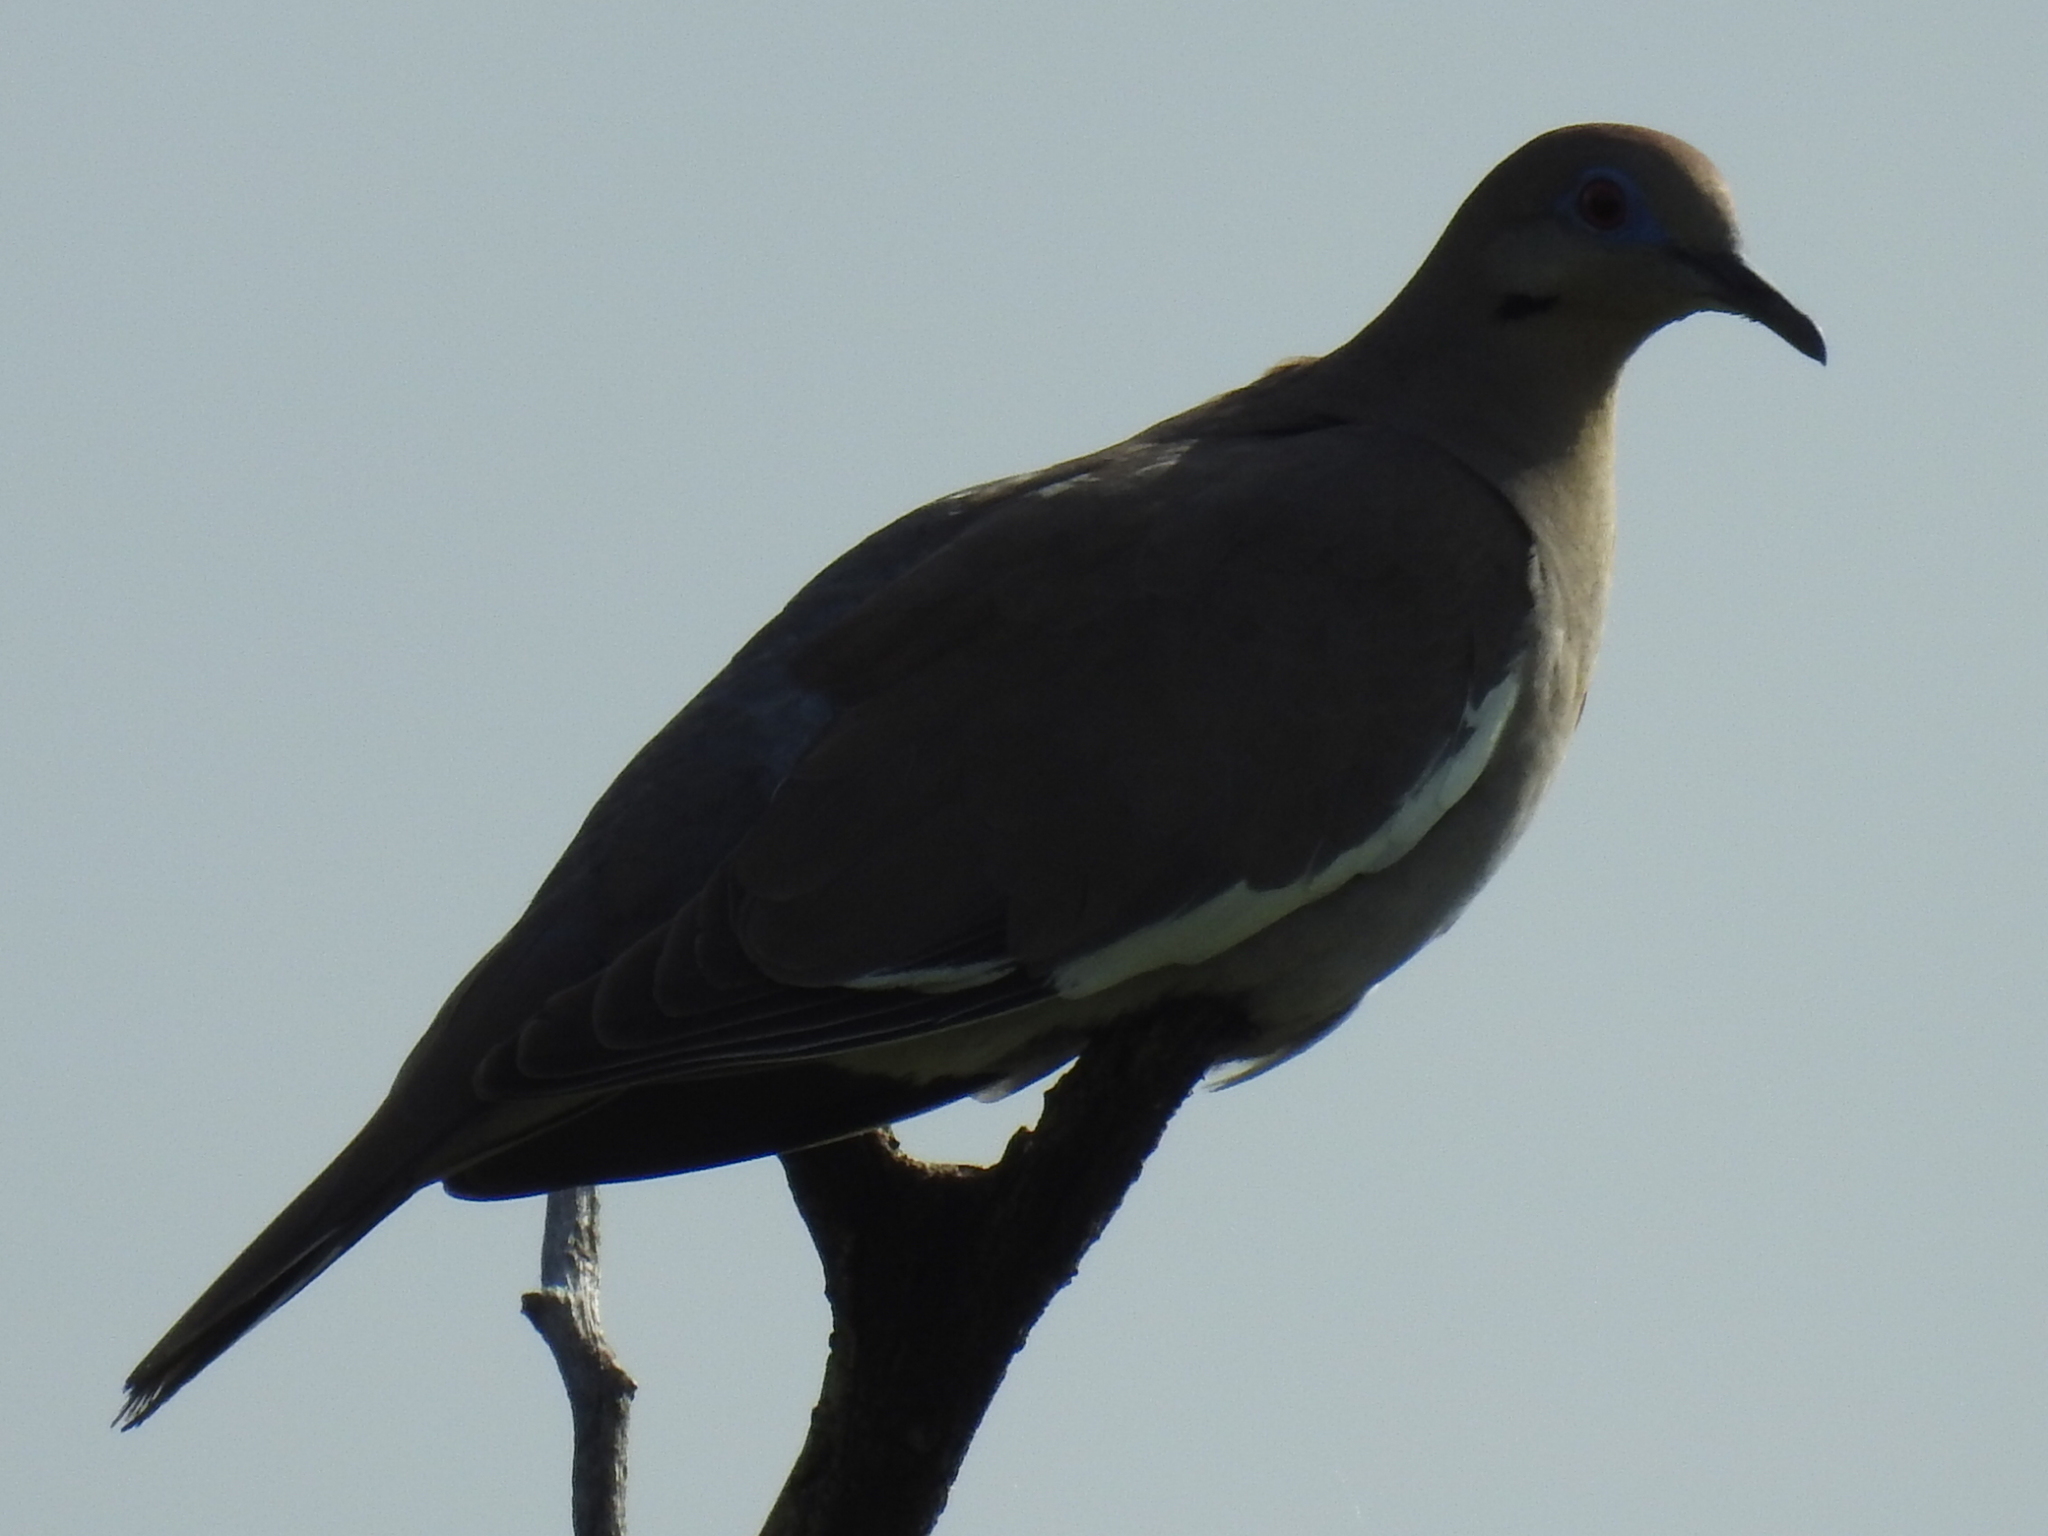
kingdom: Animalia
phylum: Chordata
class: Aves
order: Columbiformes
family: Columbidae
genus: Zenaida
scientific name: Zenaida asiatica
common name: White-winged dove
